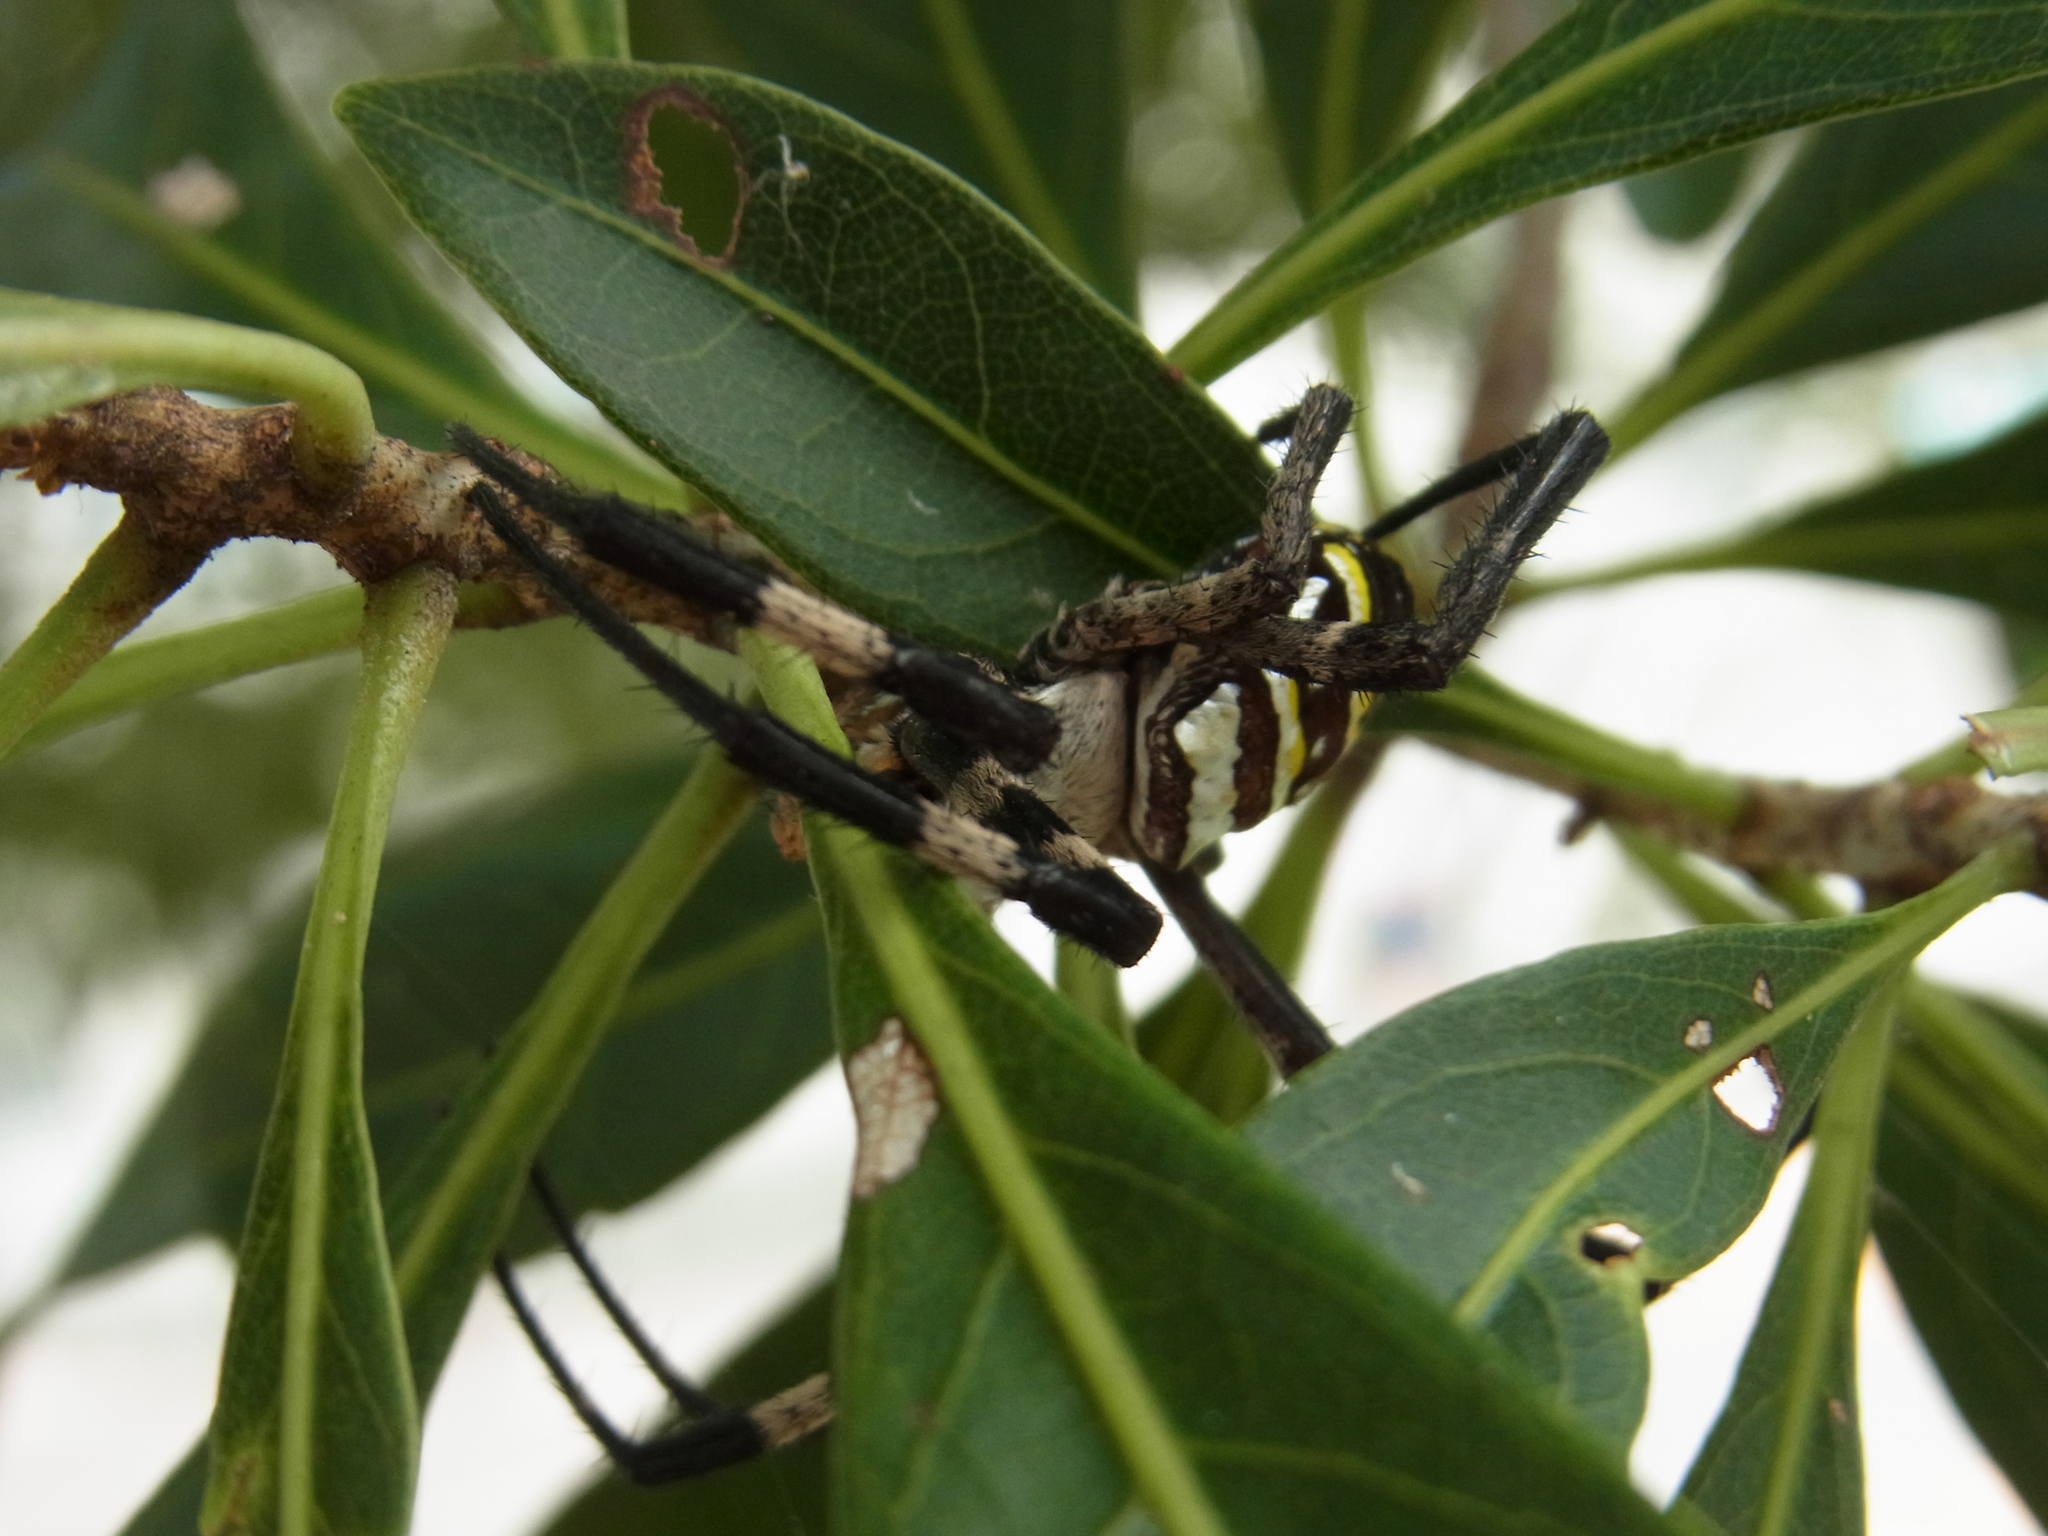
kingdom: Animalia
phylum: Arthropoda
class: Arachnida
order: Araneae
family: Araneidae
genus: Argiope
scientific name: Argiope amoena
